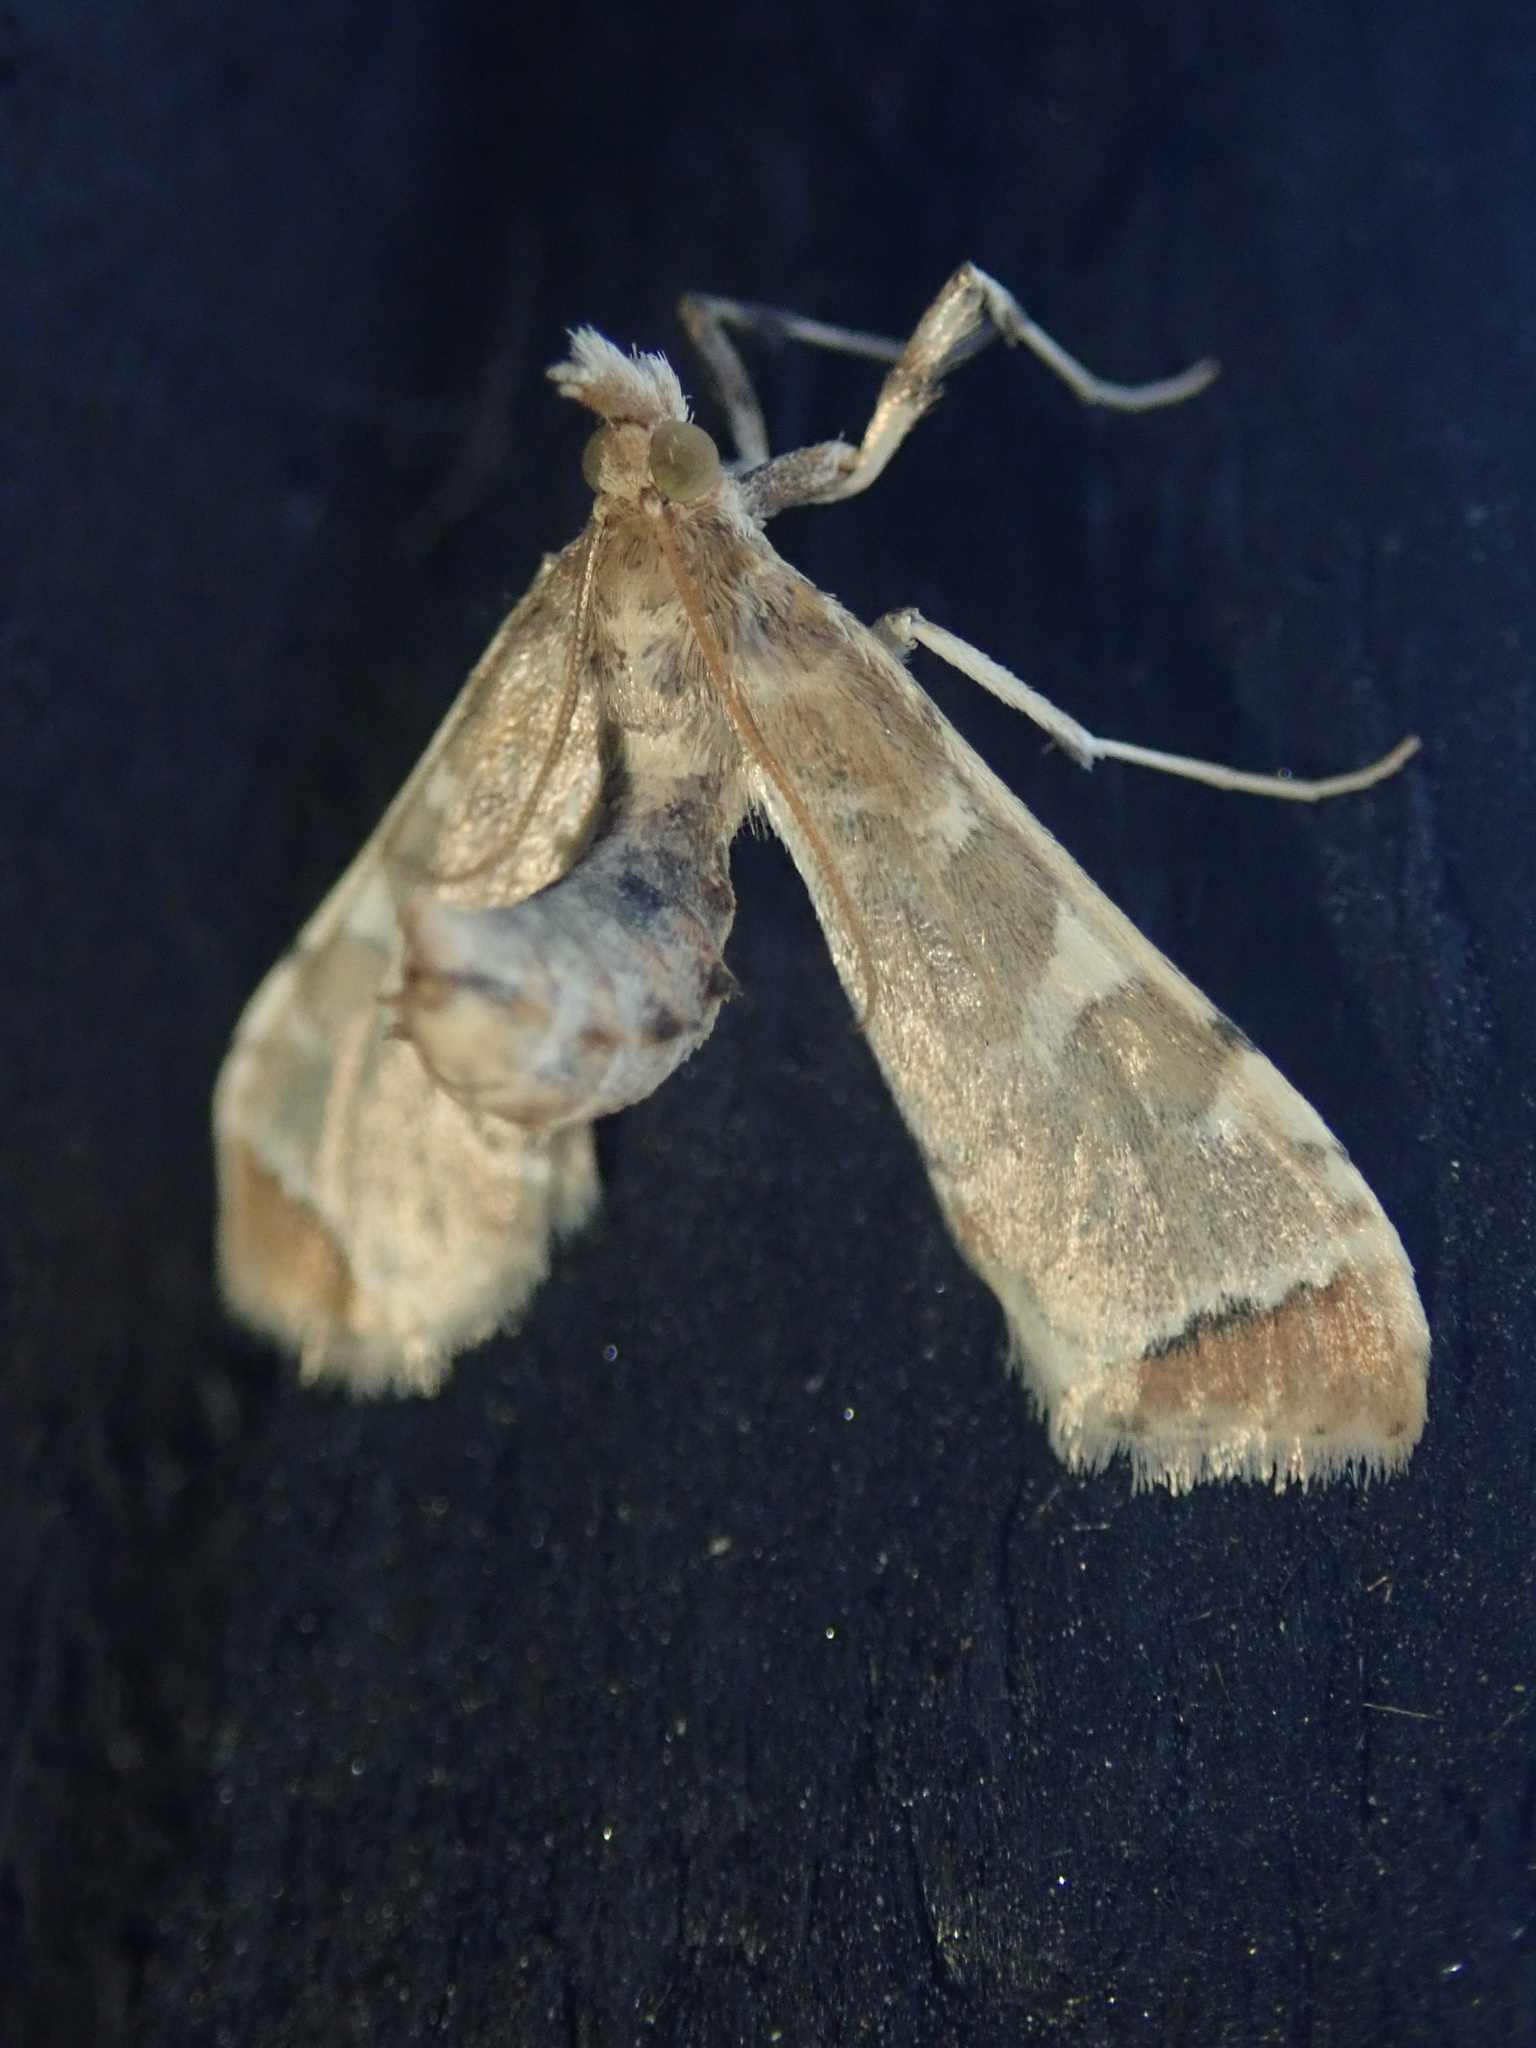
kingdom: Animalia
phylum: Arthropoda
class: Insecta
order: Lepidoptera
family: Crambidae
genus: Sceliodes
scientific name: Sceliodes cordalis
